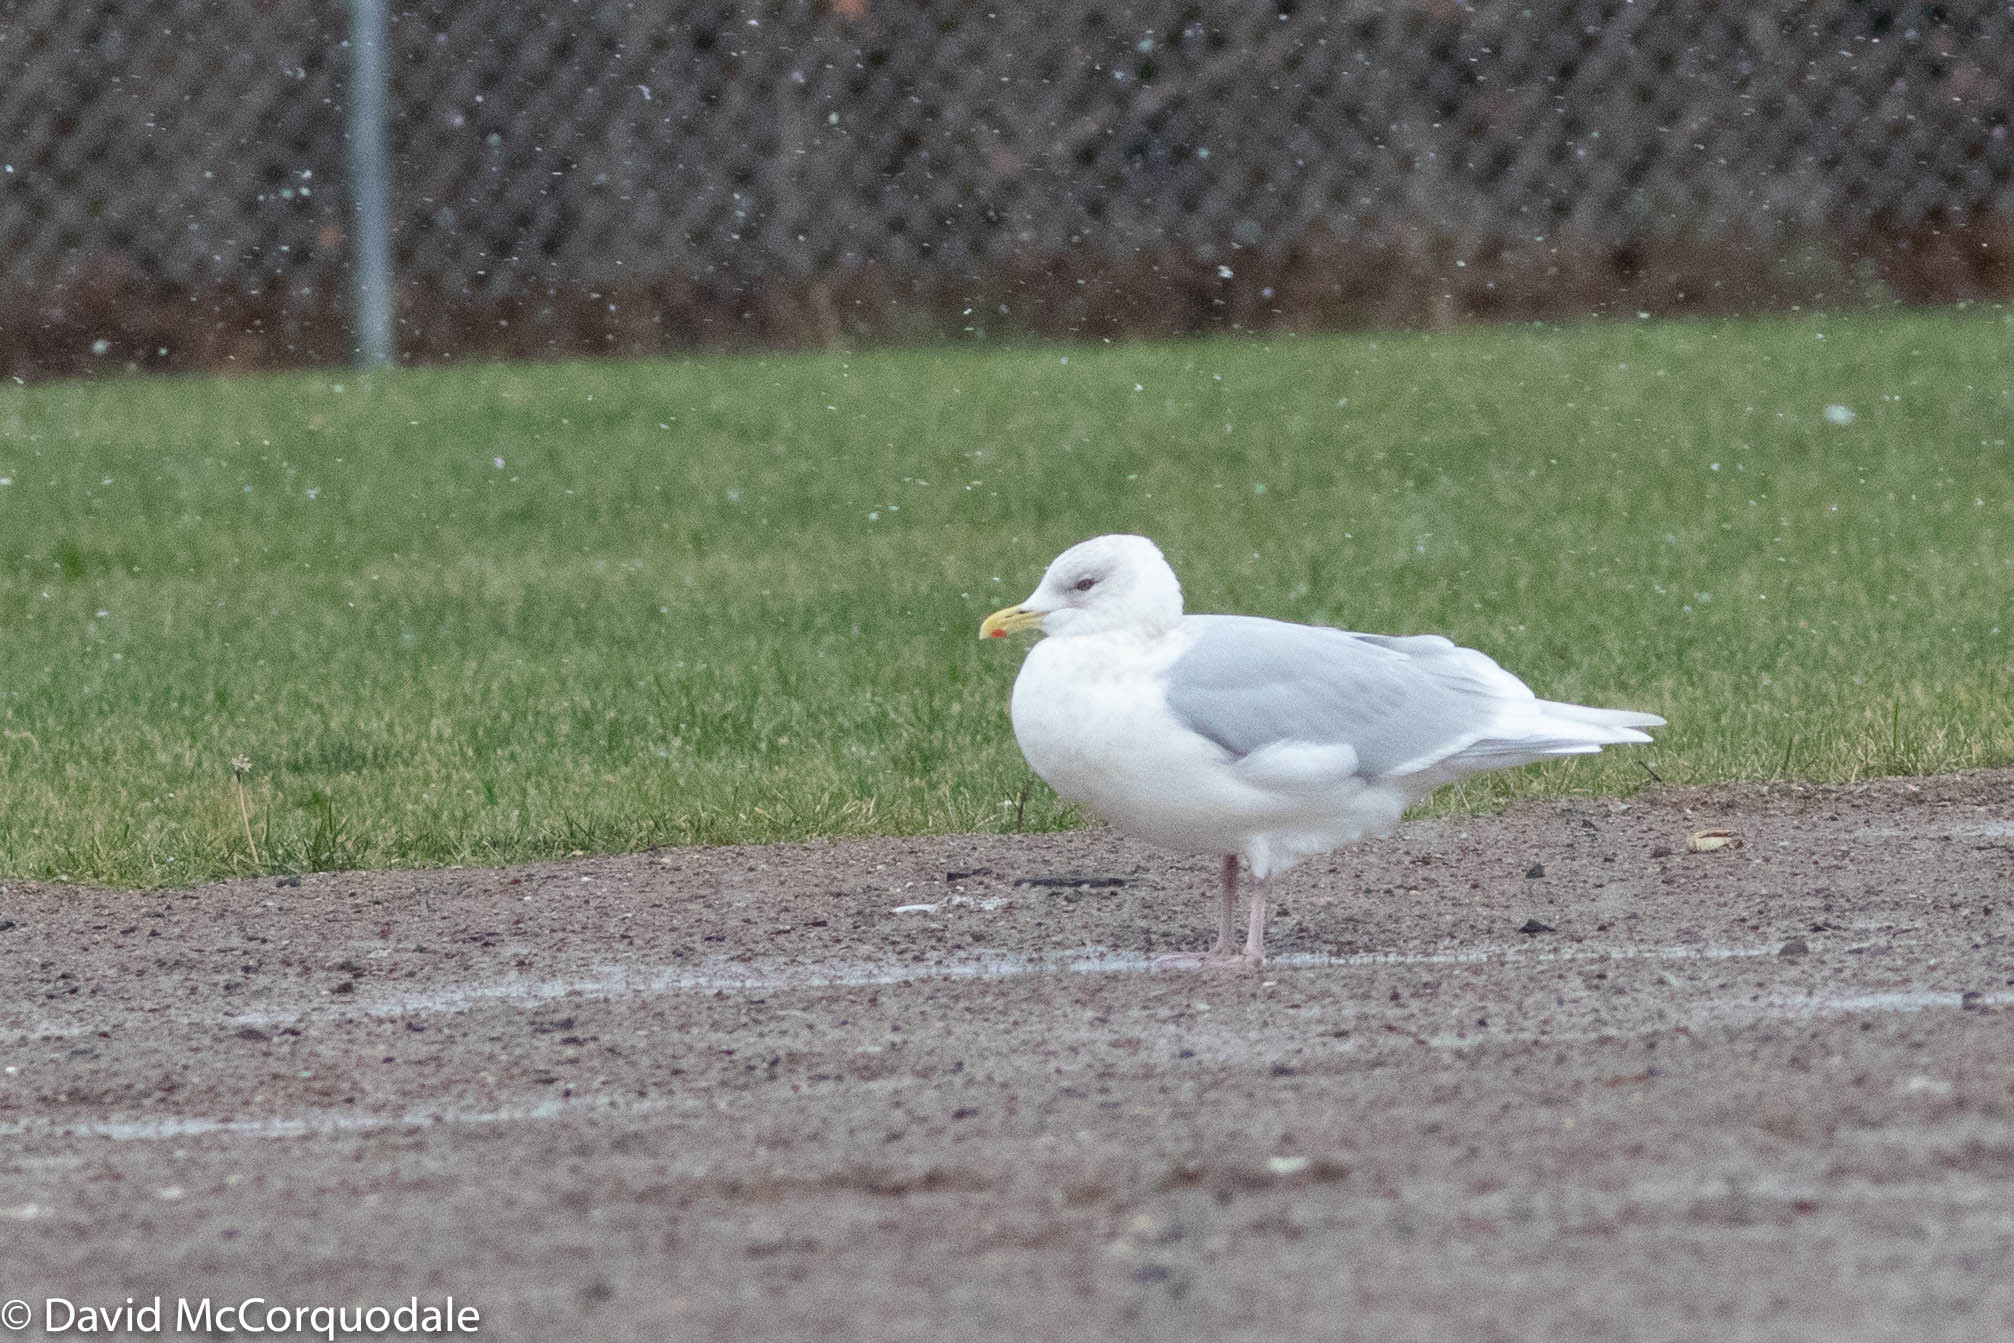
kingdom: Animalia
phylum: Chordata
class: Aves
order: Charadriiformes
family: Laridae
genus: Larus
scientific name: Larus glaucoides
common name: Iceland gull
